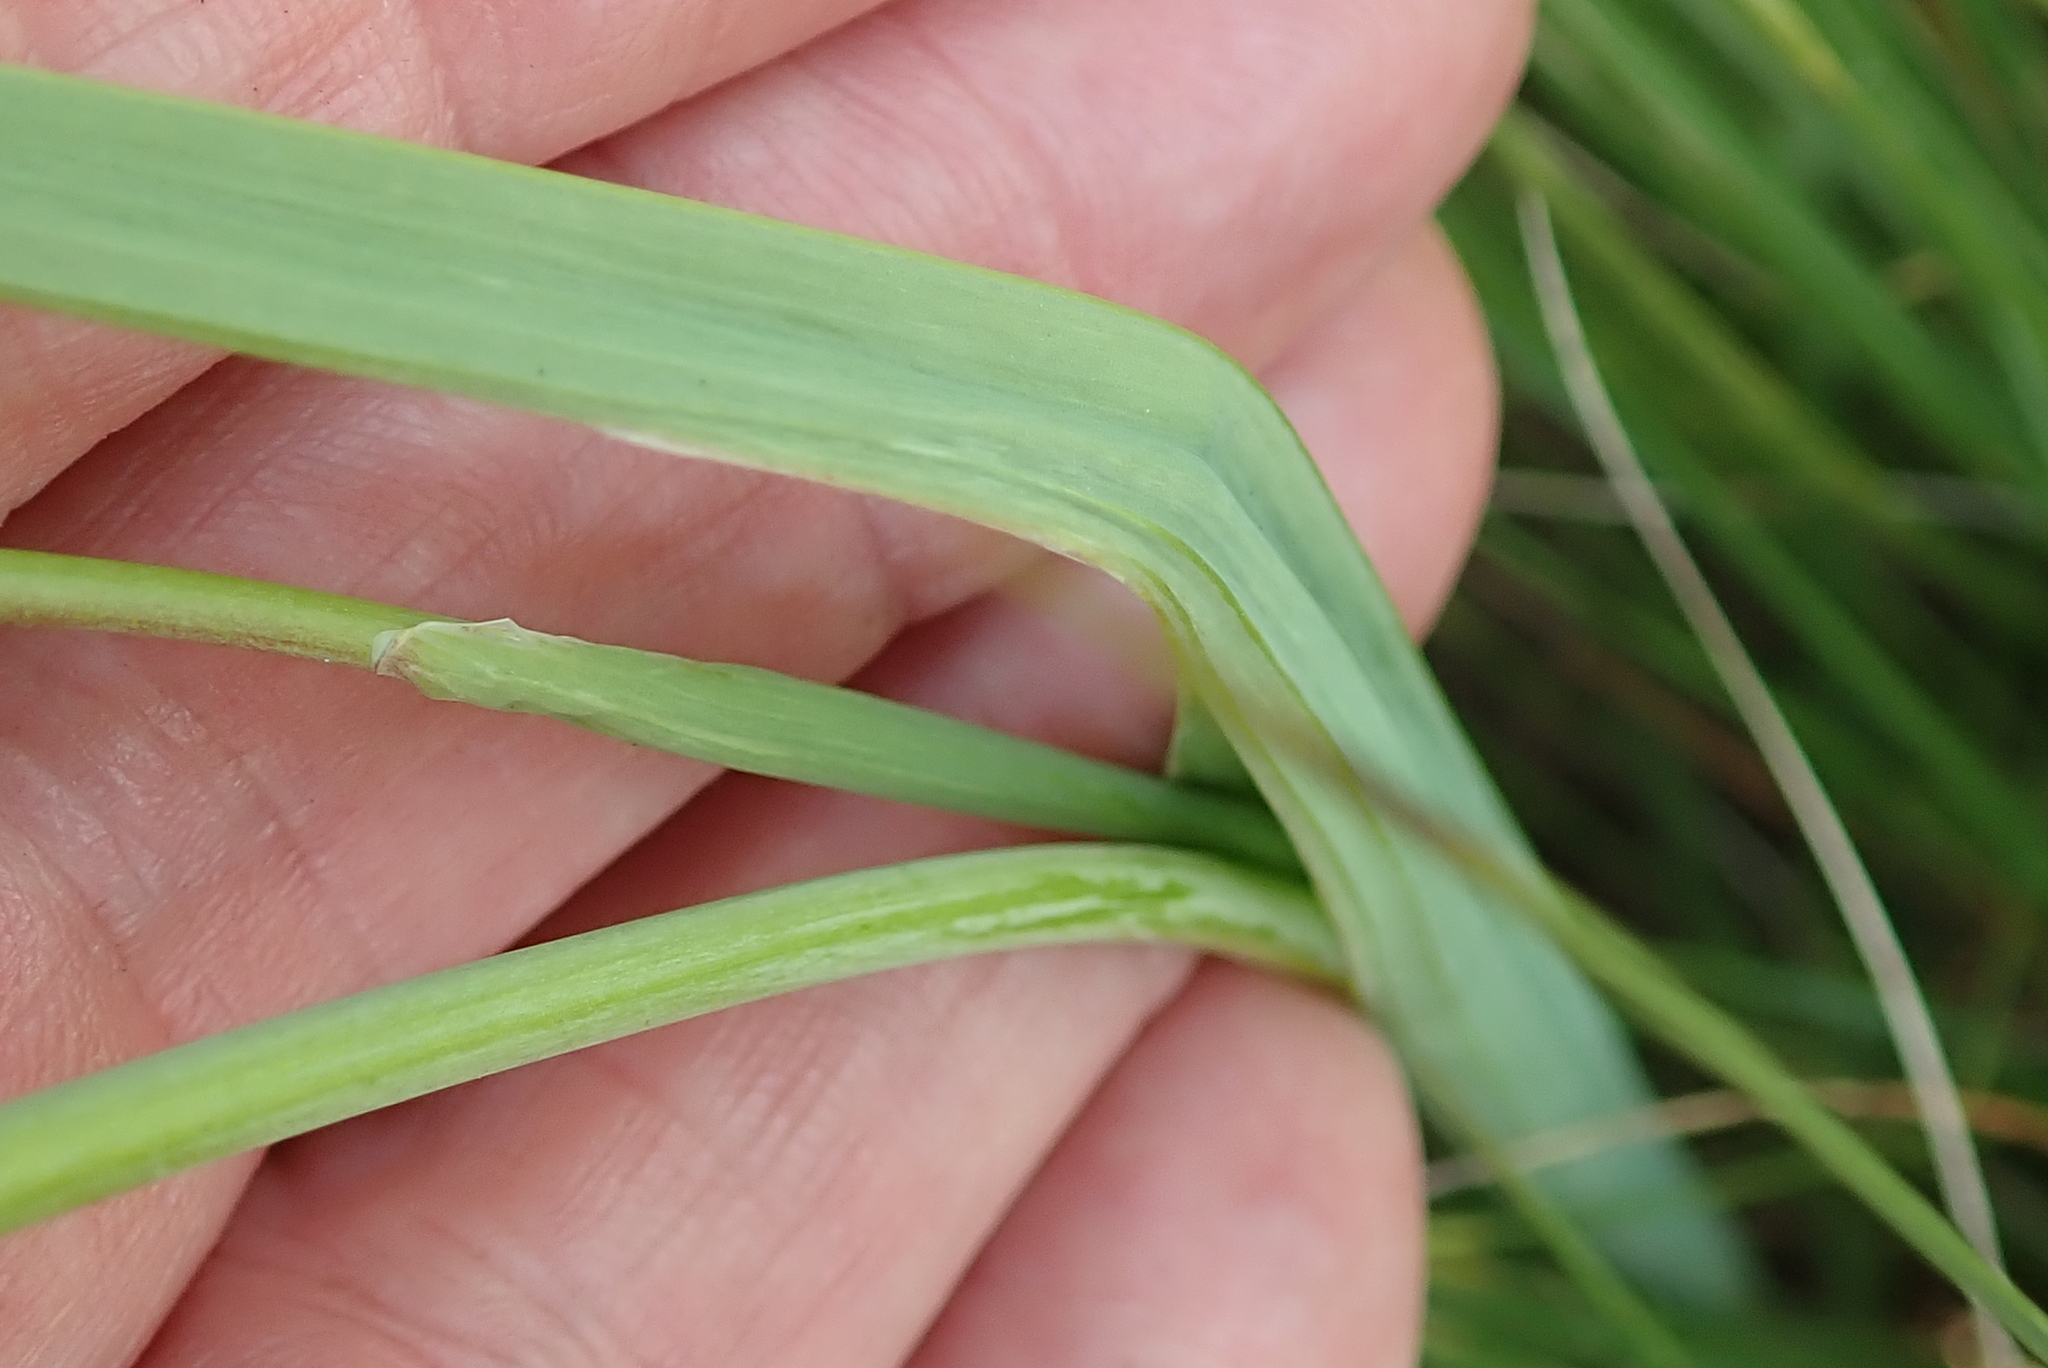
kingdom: Plantae
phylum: Tracheophyta
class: Liliopsida
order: Asparagales
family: Iridaceae
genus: Hesperantha
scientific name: Hesperantha baurii
